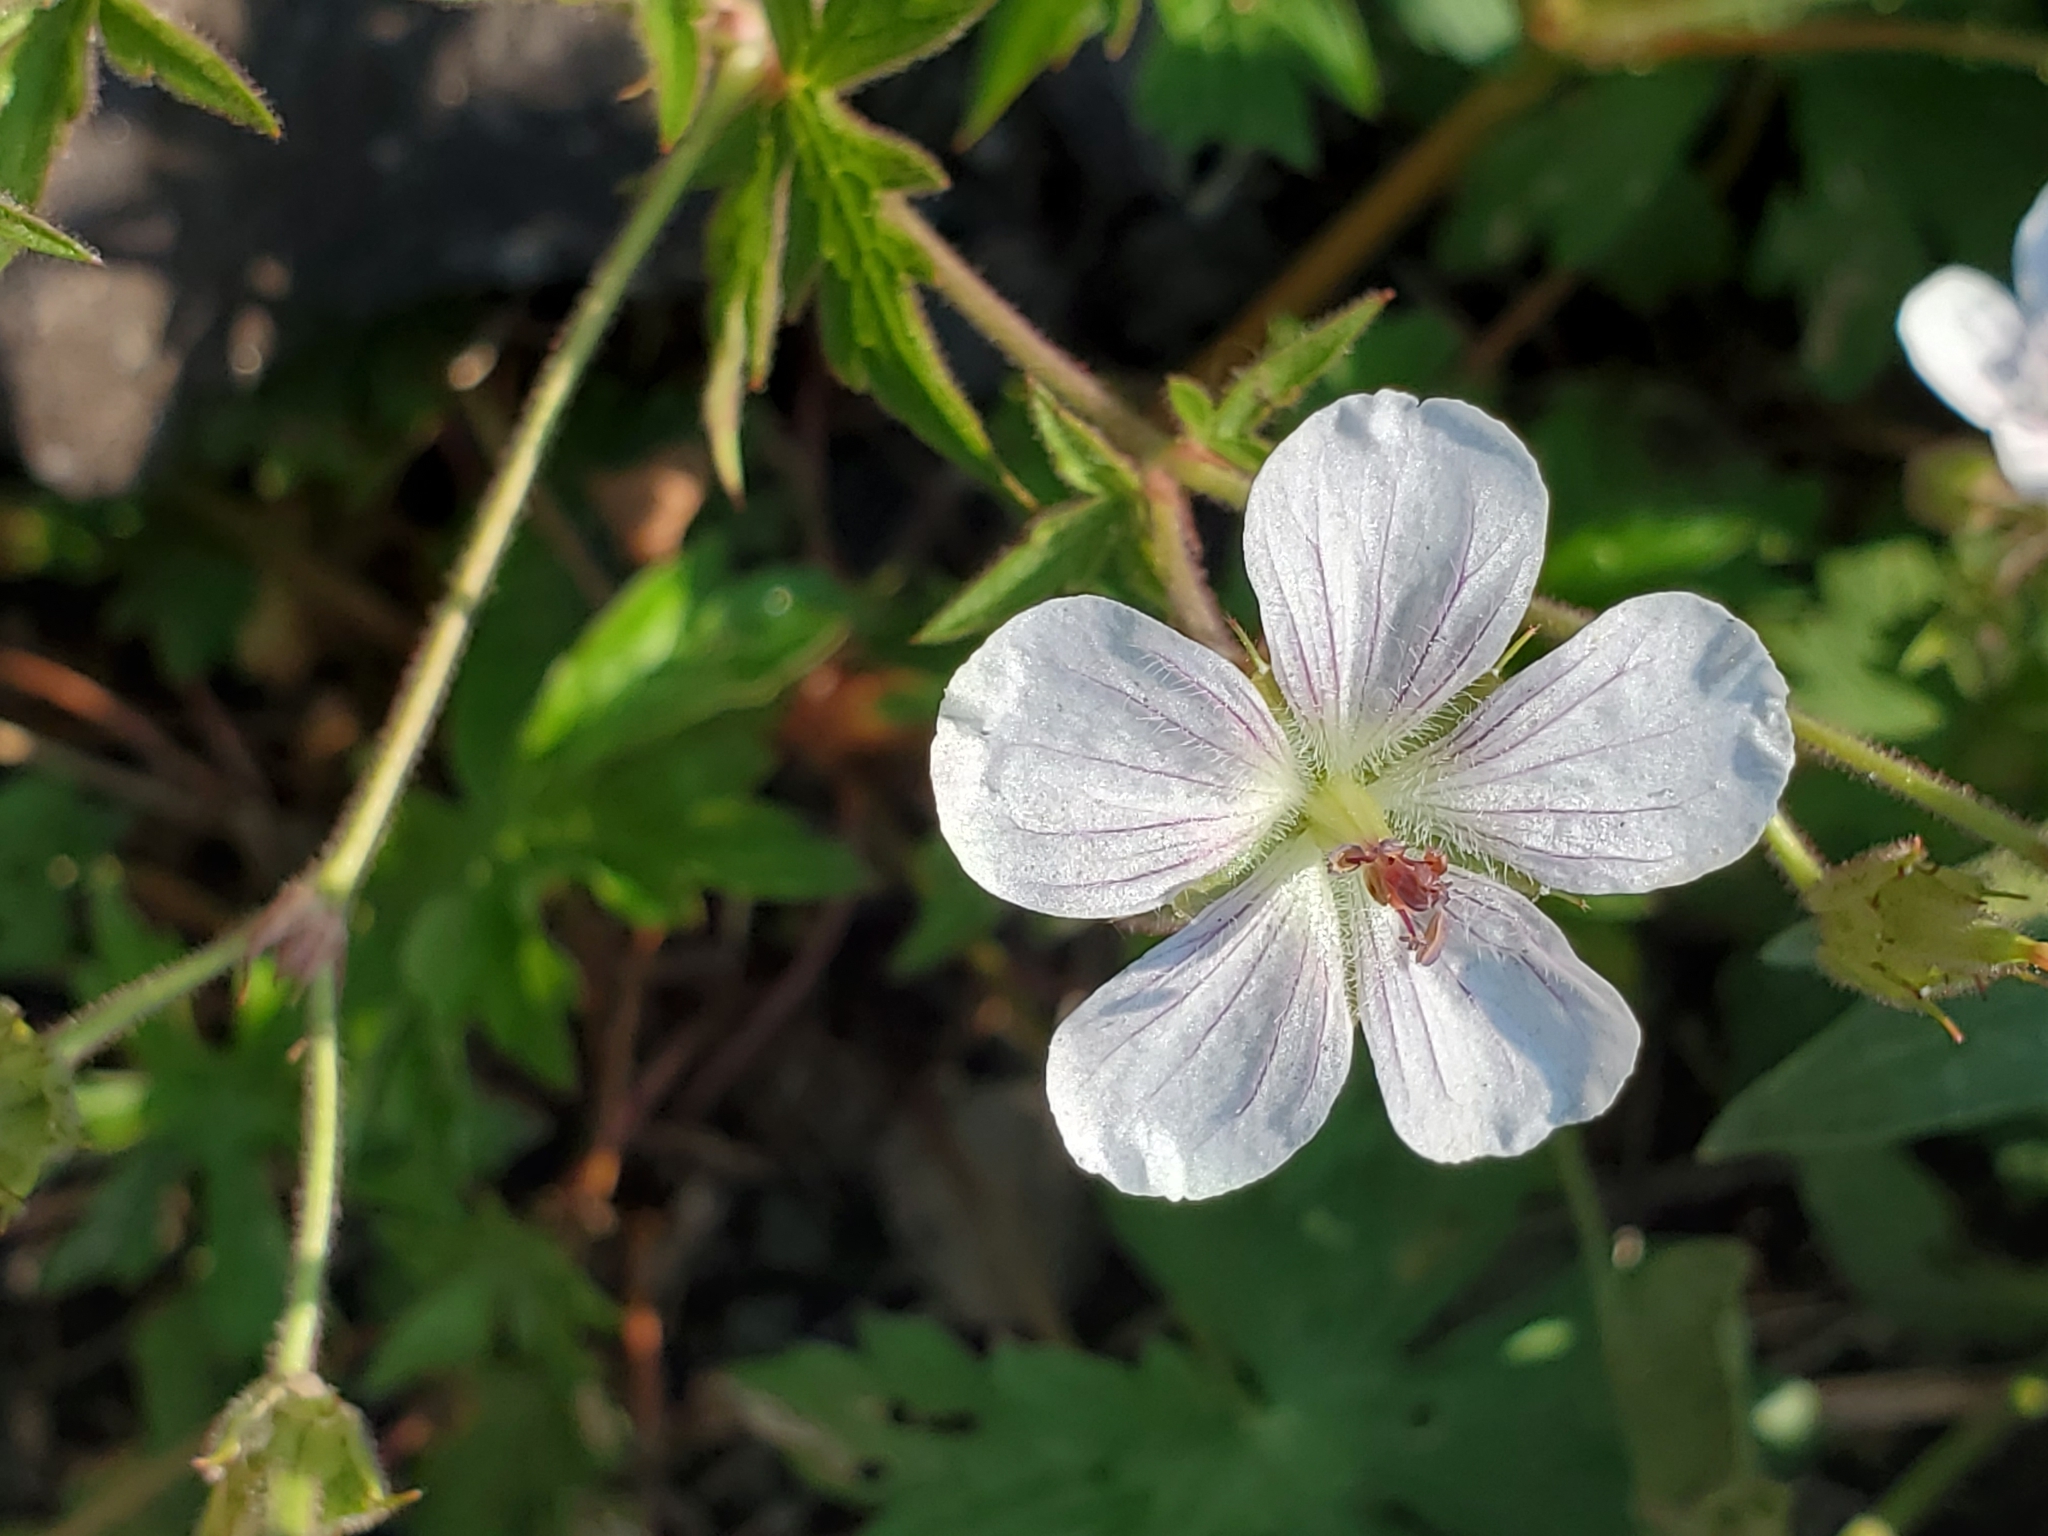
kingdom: Plantae
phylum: Tracheophyta
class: Magnoliopsida
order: Geraniales
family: Geraniaceae
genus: Geranium
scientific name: Geranium richardsonii
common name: Richardson's crane's-bill
